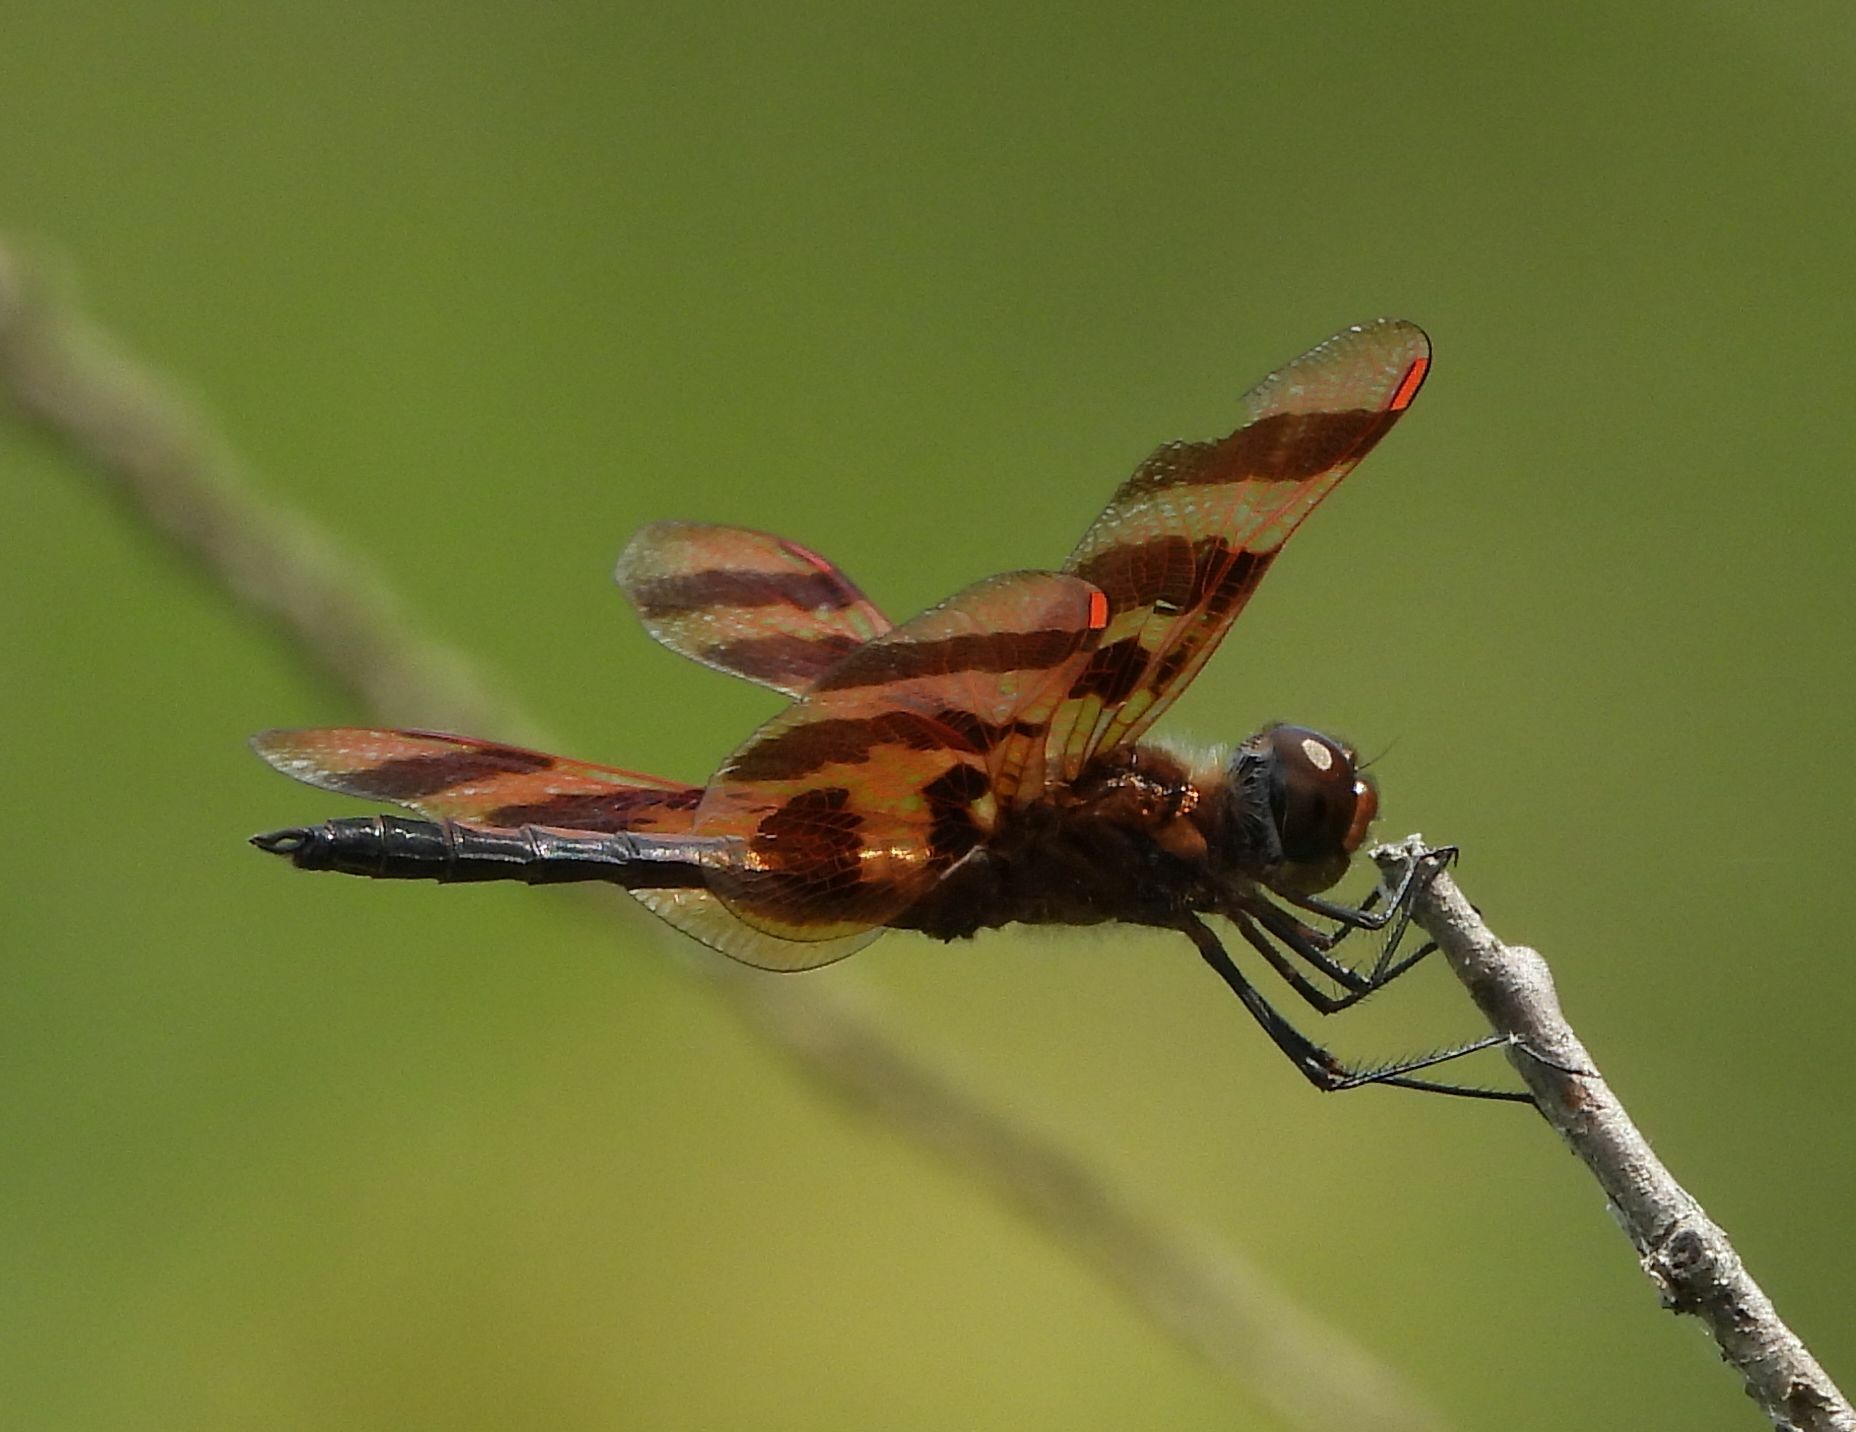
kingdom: Animalia
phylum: Arthropoda
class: Insecta
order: Odonata
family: Libellulidae
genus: Celithemis
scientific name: Celithemis eponina
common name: Halloween pennant
